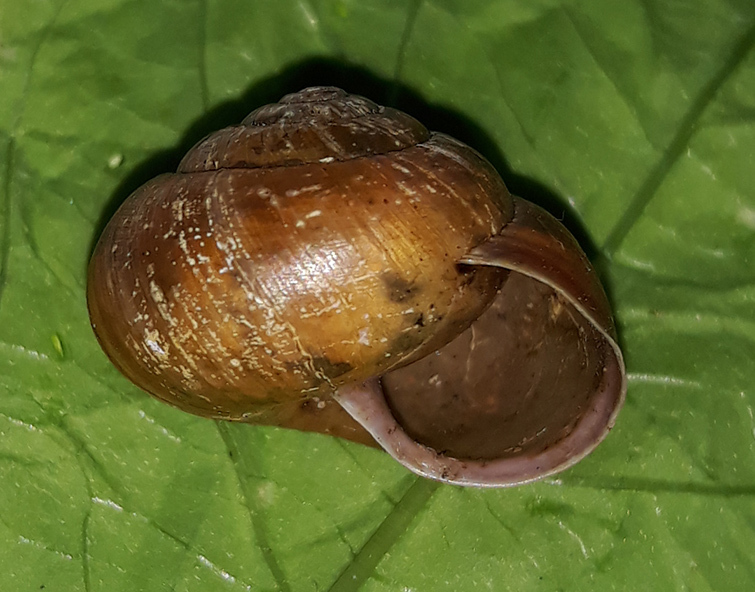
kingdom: Animalia
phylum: Mollusca
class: Gastropoda
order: Stylommatophora
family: Camaenidae
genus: Fruticicola
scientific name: Fruticicola fruticum
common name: Bush snail
